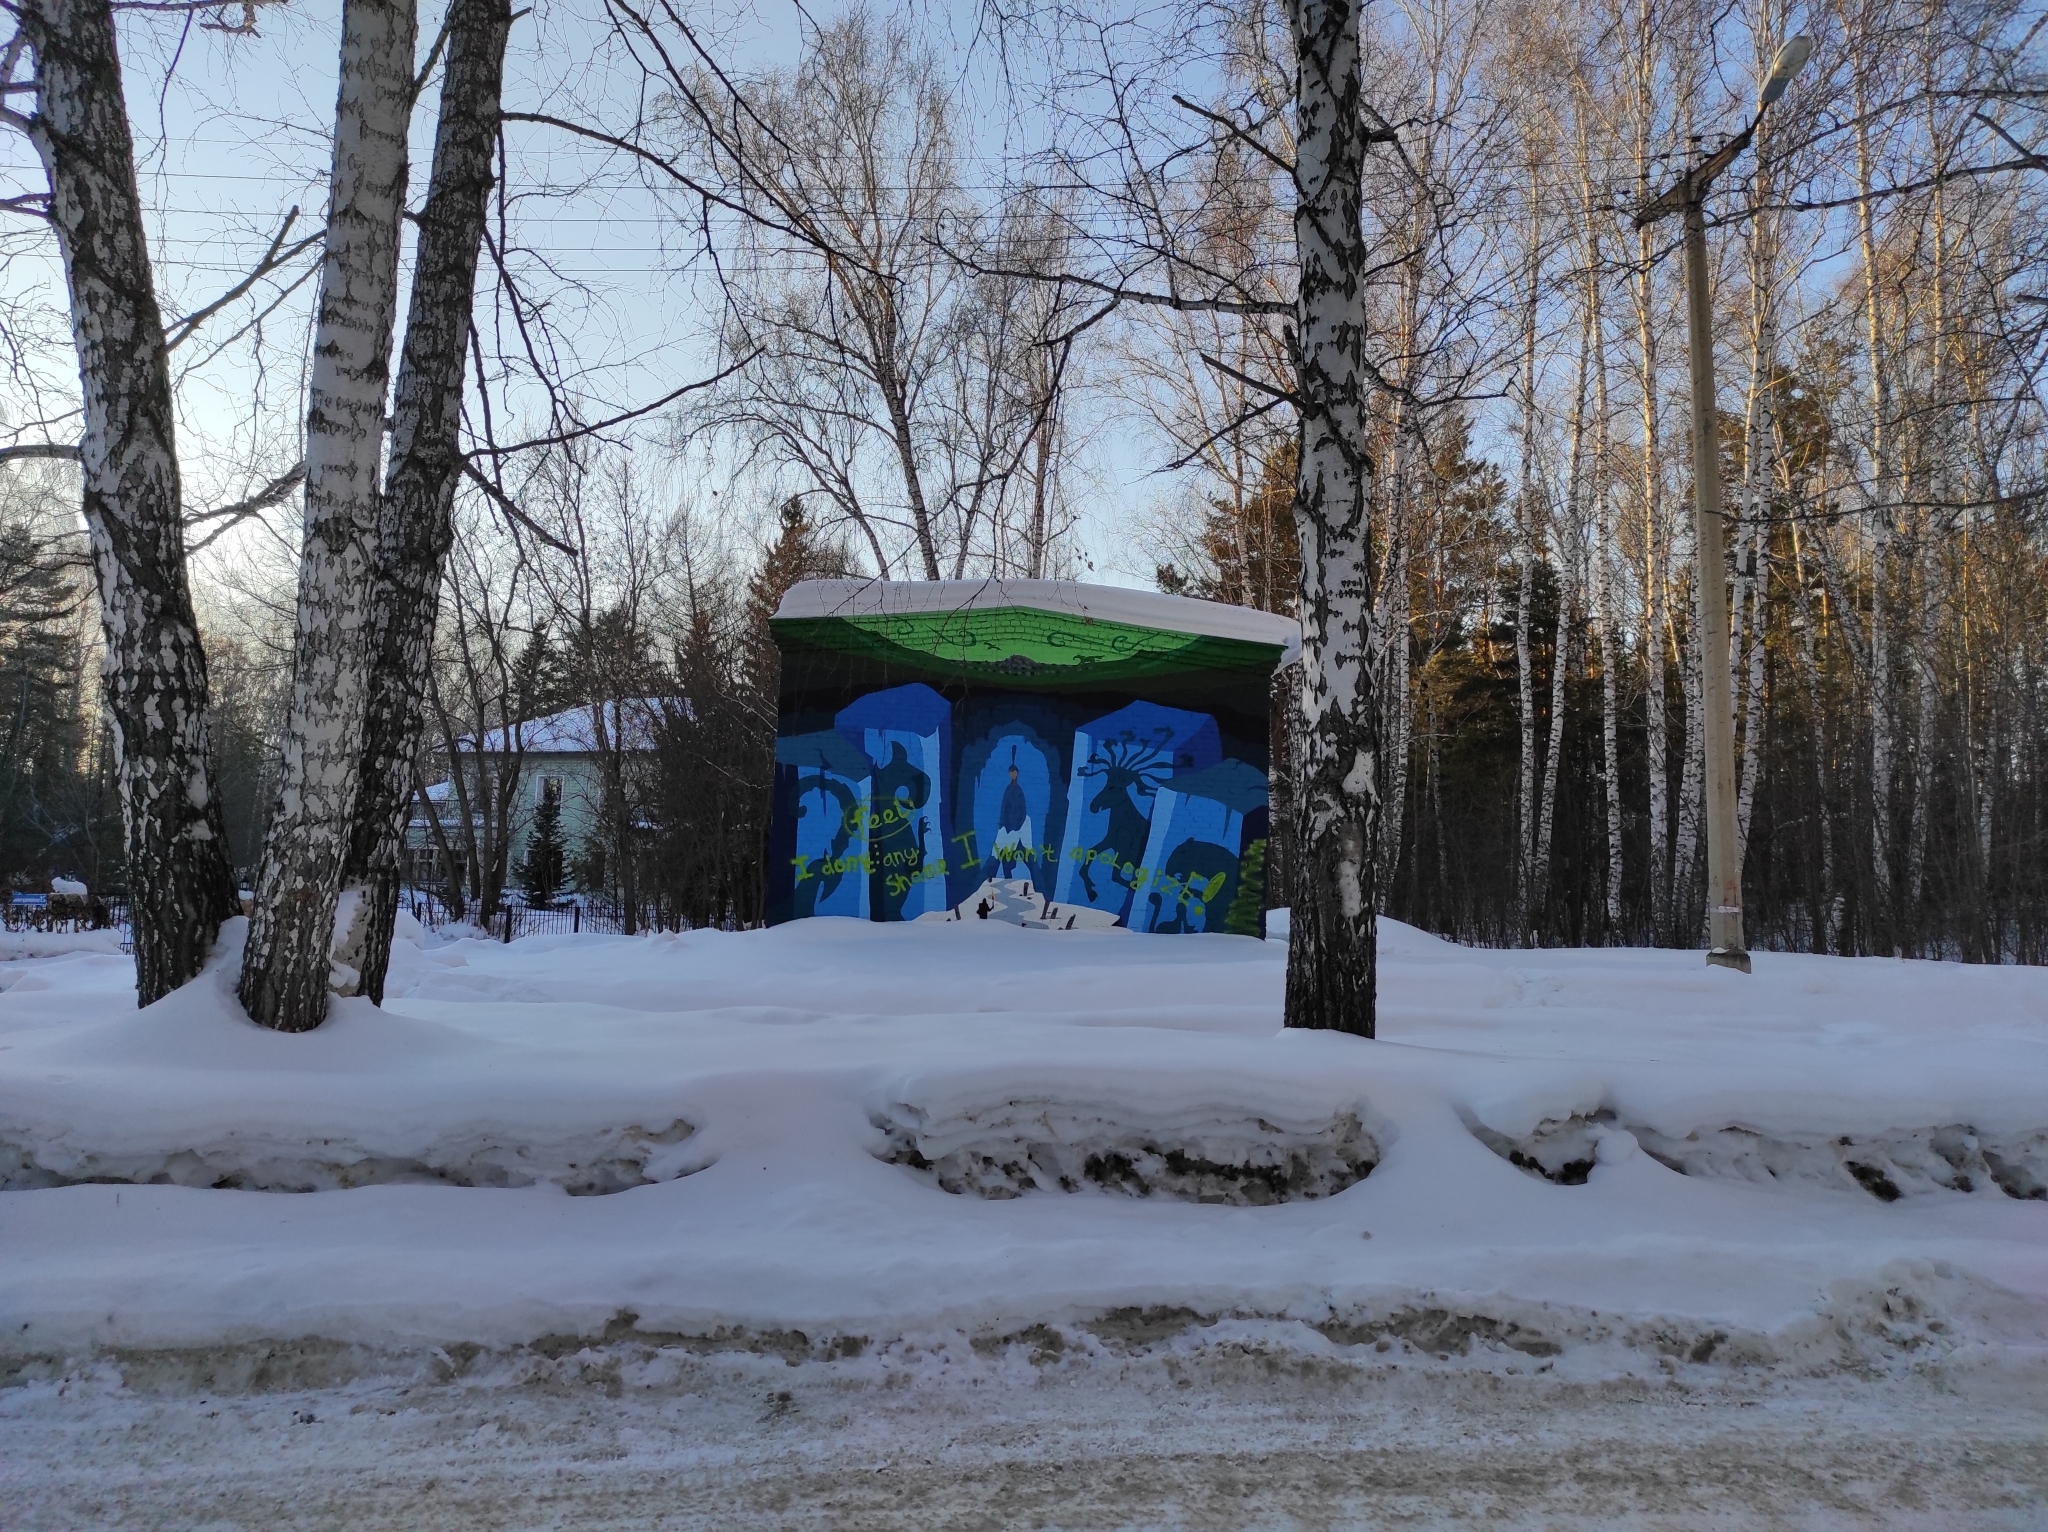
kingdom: Plantae
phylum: Tracheophyta
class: Magnoliopsida
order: Fagales
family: Betulaceae
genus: Betula
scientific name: Betula pendula
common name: Silver birch
